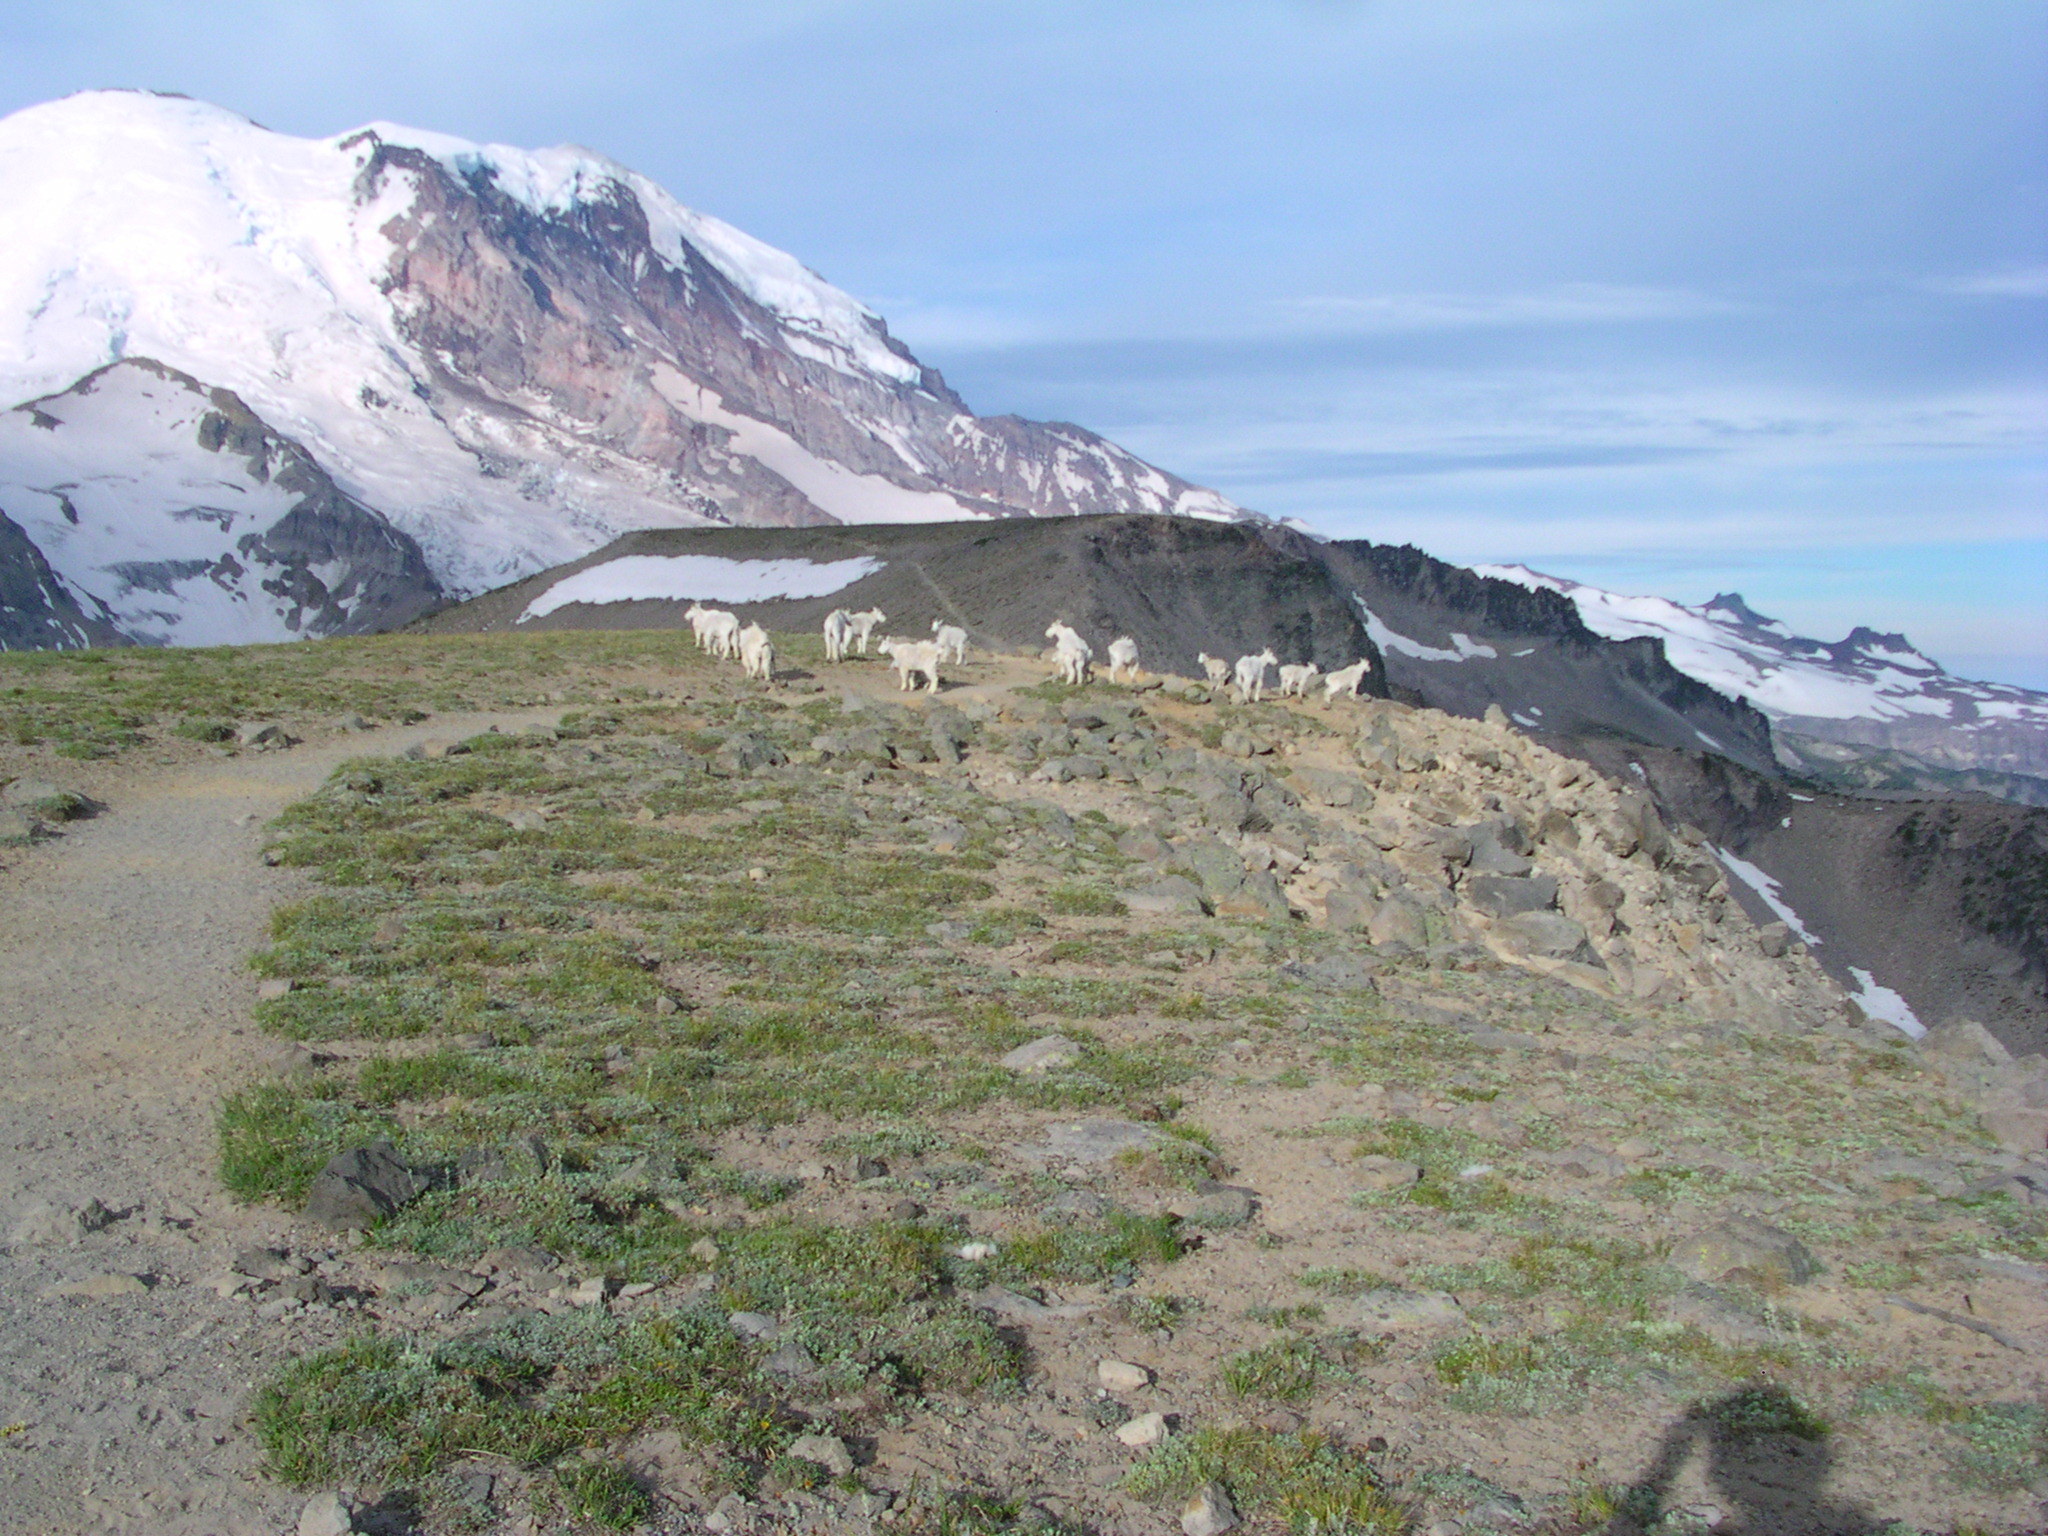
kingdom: Animalia
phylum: Chordata
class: Mammalia
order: Artiodactyla
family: Bovidae
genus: Oreamnos
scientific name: Oreamnos americanus
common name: Mountain goat
